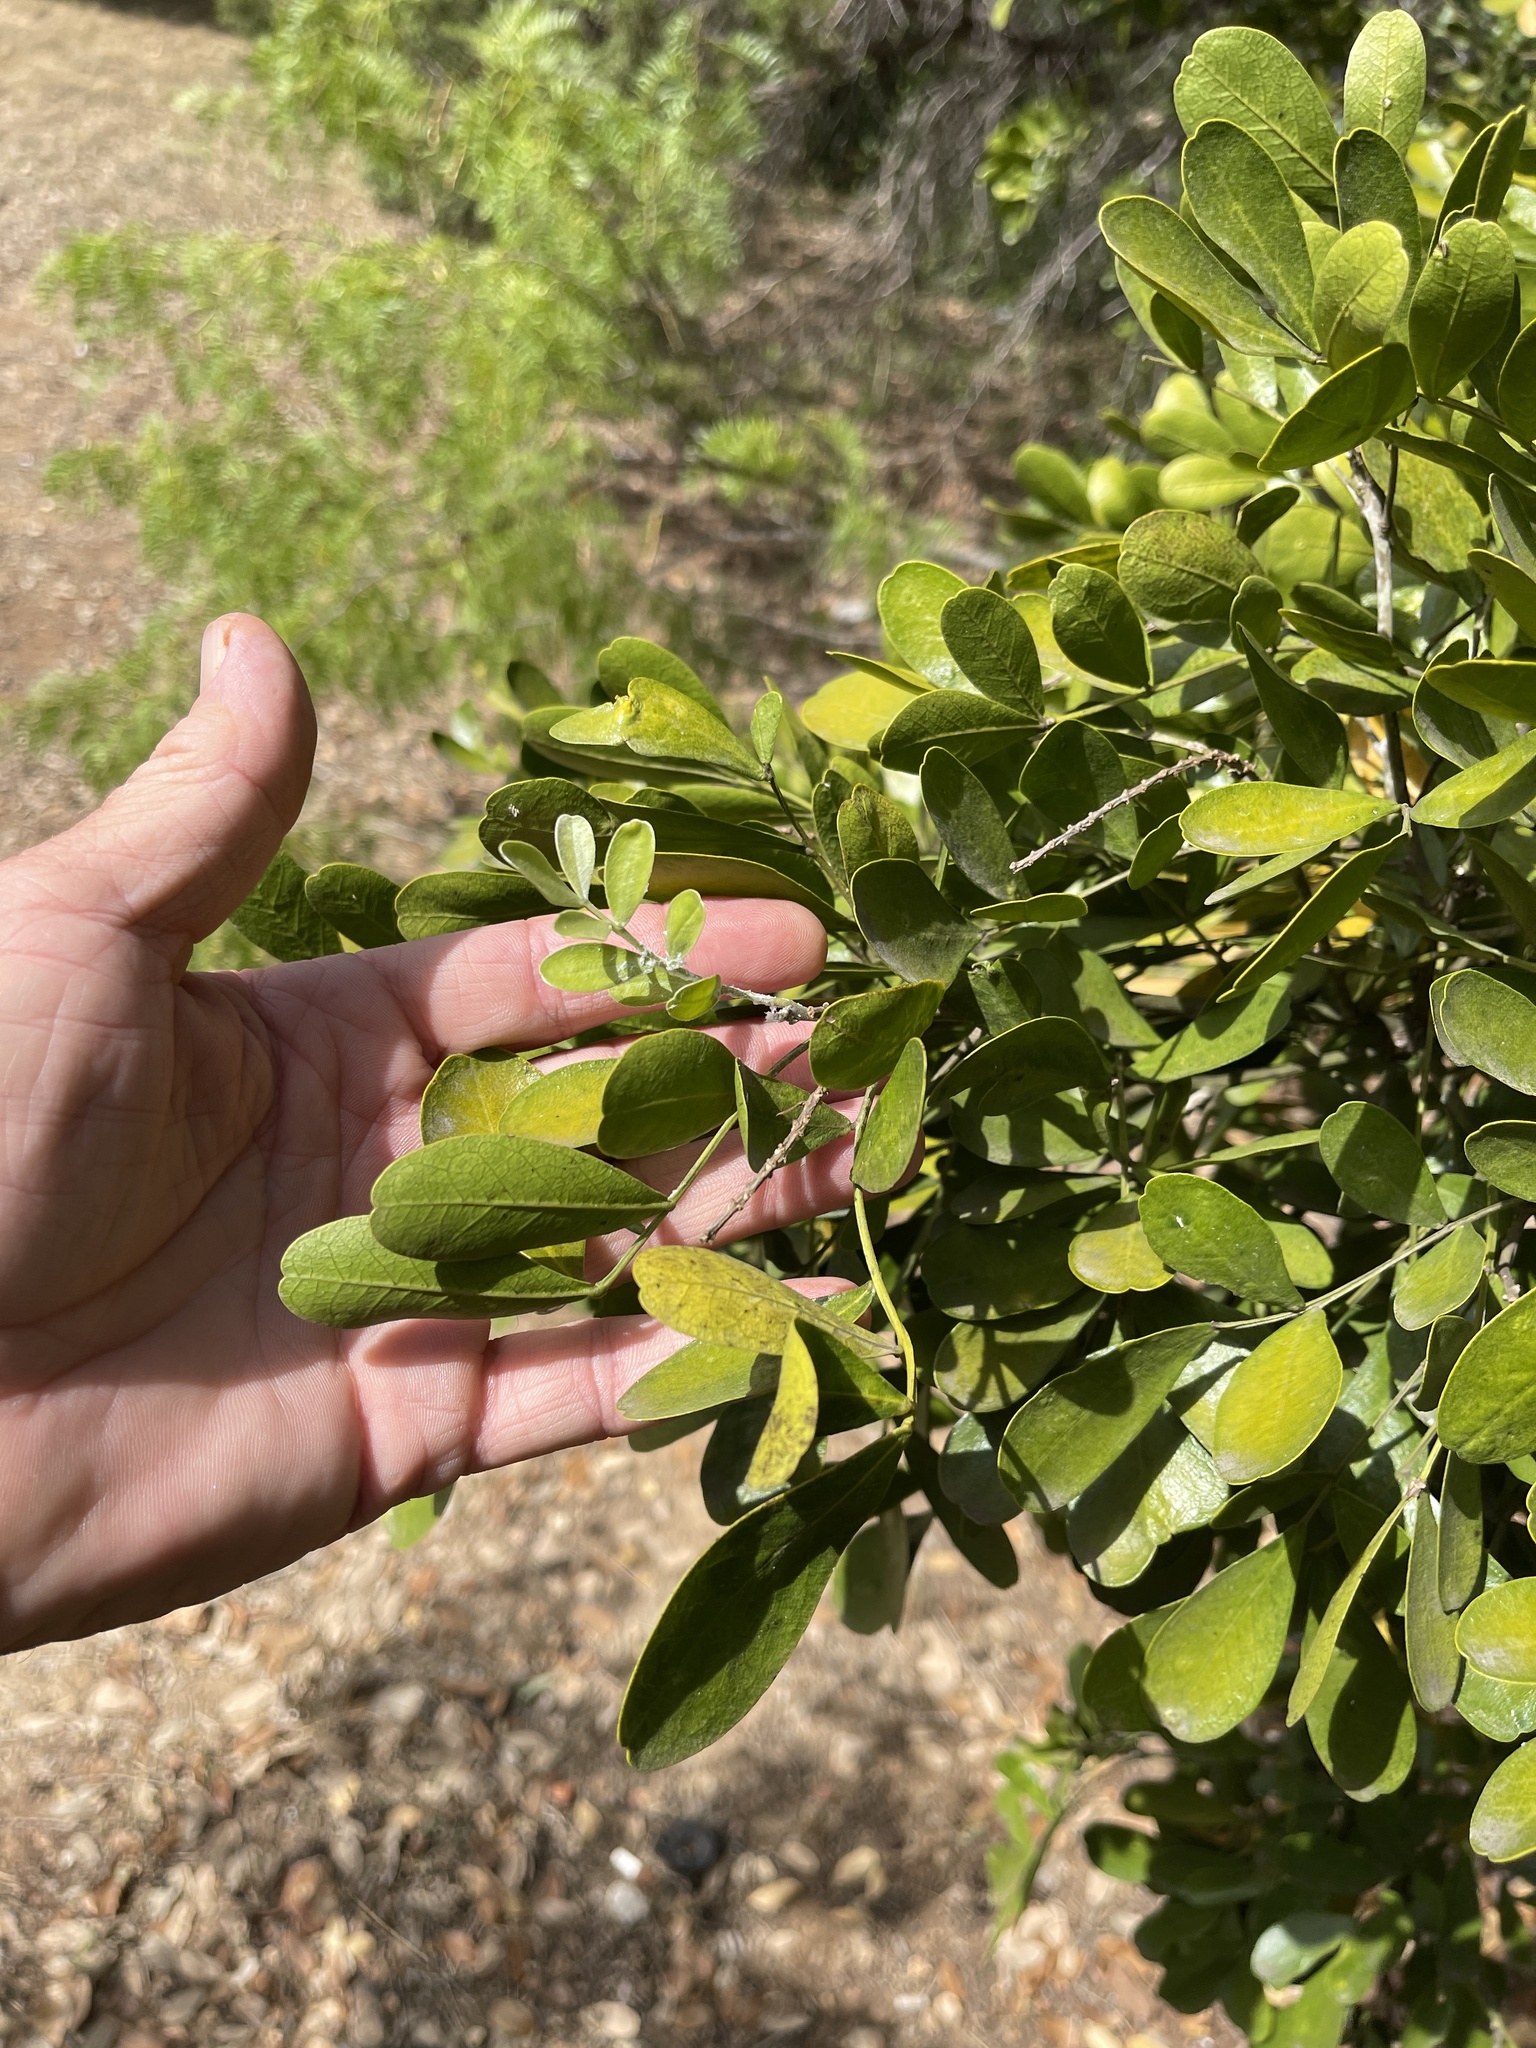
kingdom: Plantae
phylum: Tracheophyta
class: Magnoliopsida
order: Fabales
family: Fabaceae
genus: Dermatophyllum
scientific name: Dermatophyllum secundiflorum
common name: Texas-mountain-laurel
